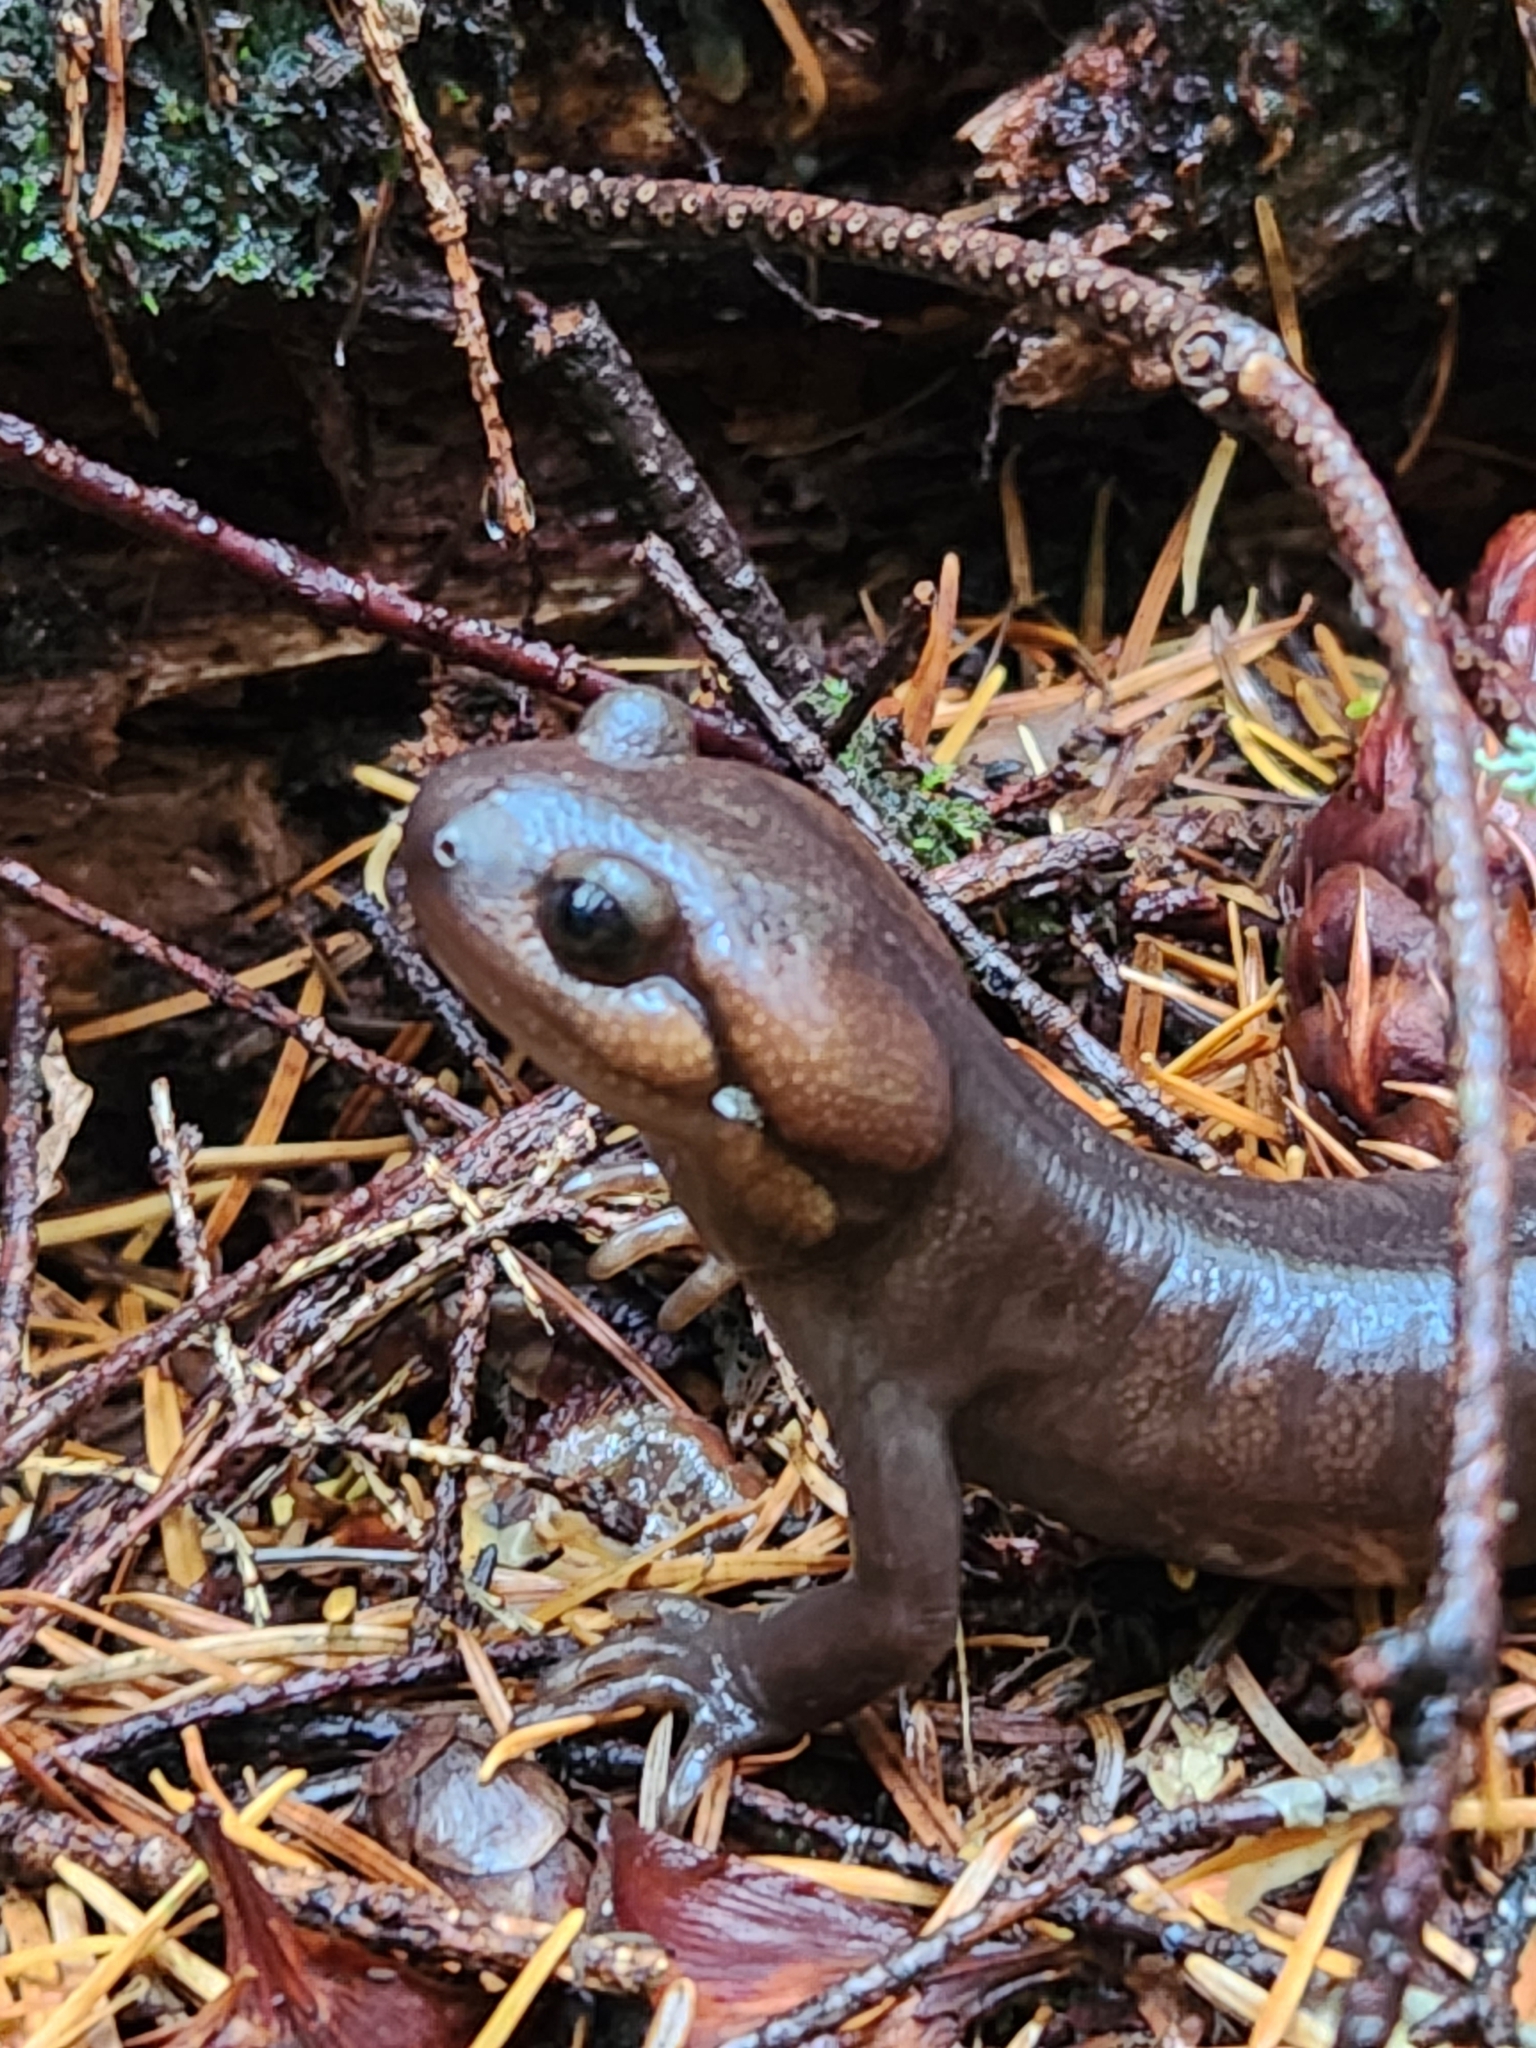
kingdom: Animalia
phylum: Chordata
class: Amphibia
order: Caudata
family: Ambystomatidae
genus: Ambystoma
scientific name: Ambystoma gracile
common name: Northwestern salamander
